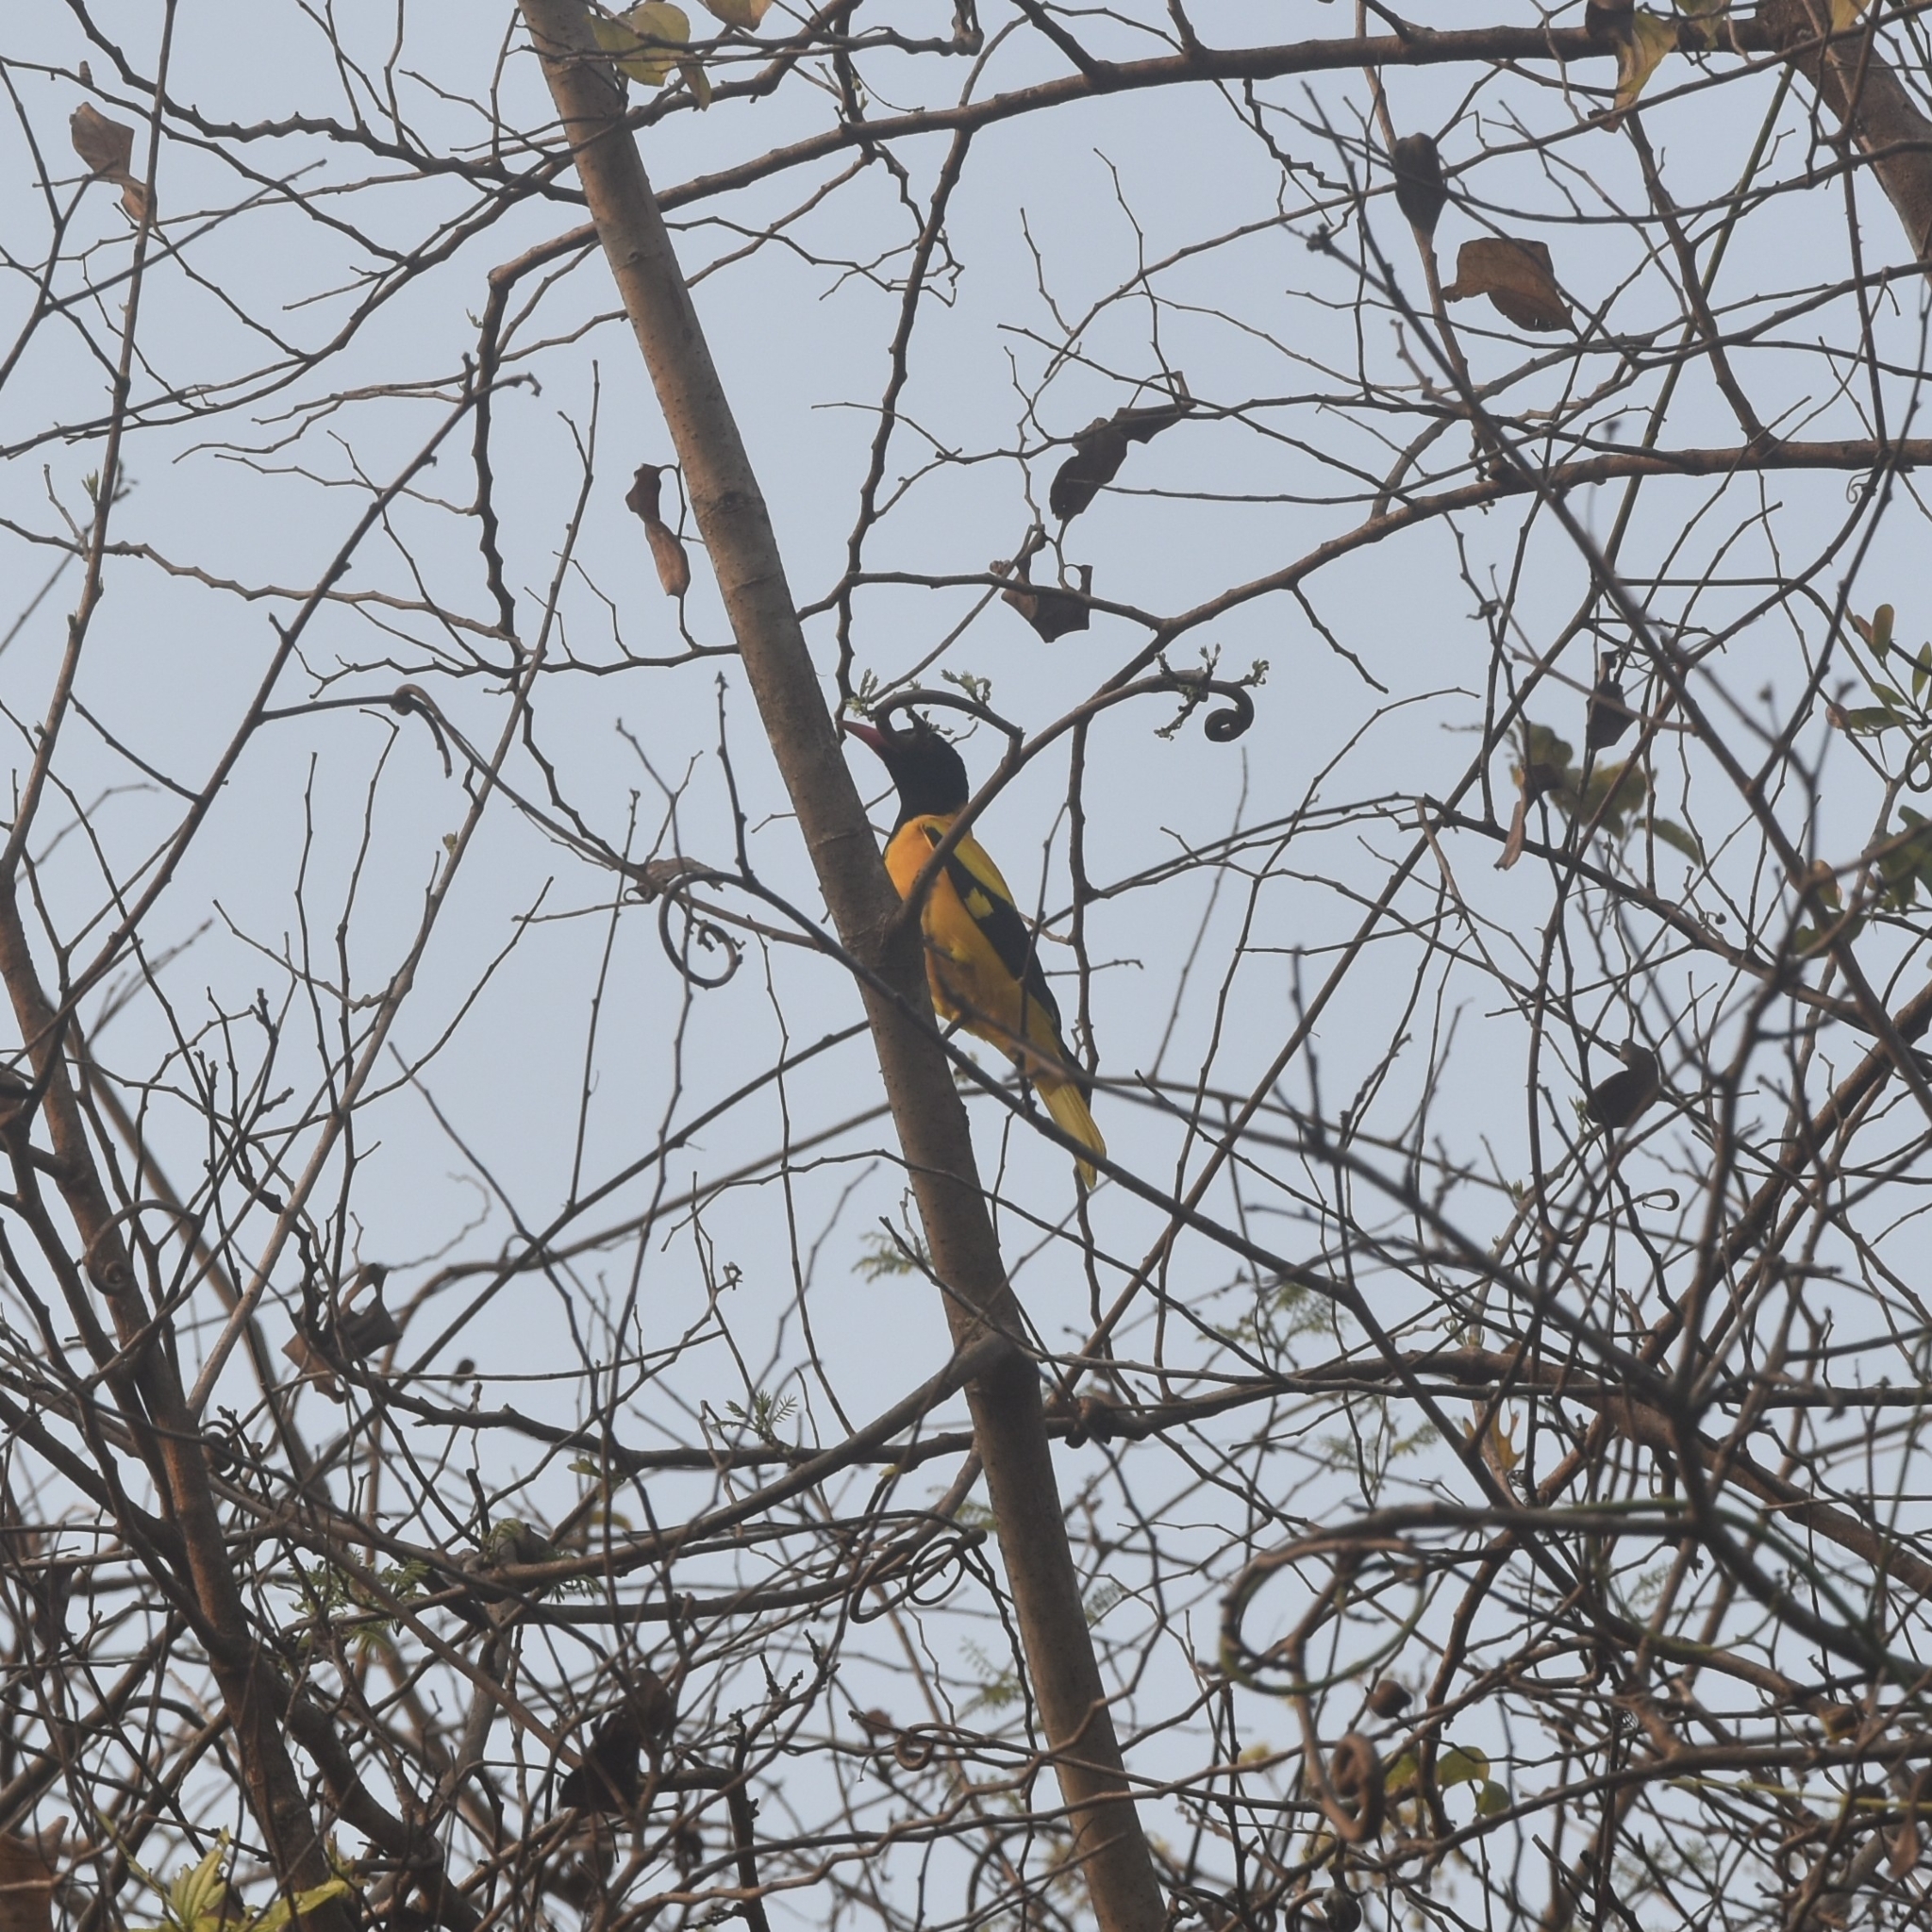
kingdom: Animalia
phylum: Chordata
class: Aves
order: Passeriformes
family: Oriolidae
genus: Oriolus
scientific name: Oriolus xanthornus
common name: Black-hooded oriole
